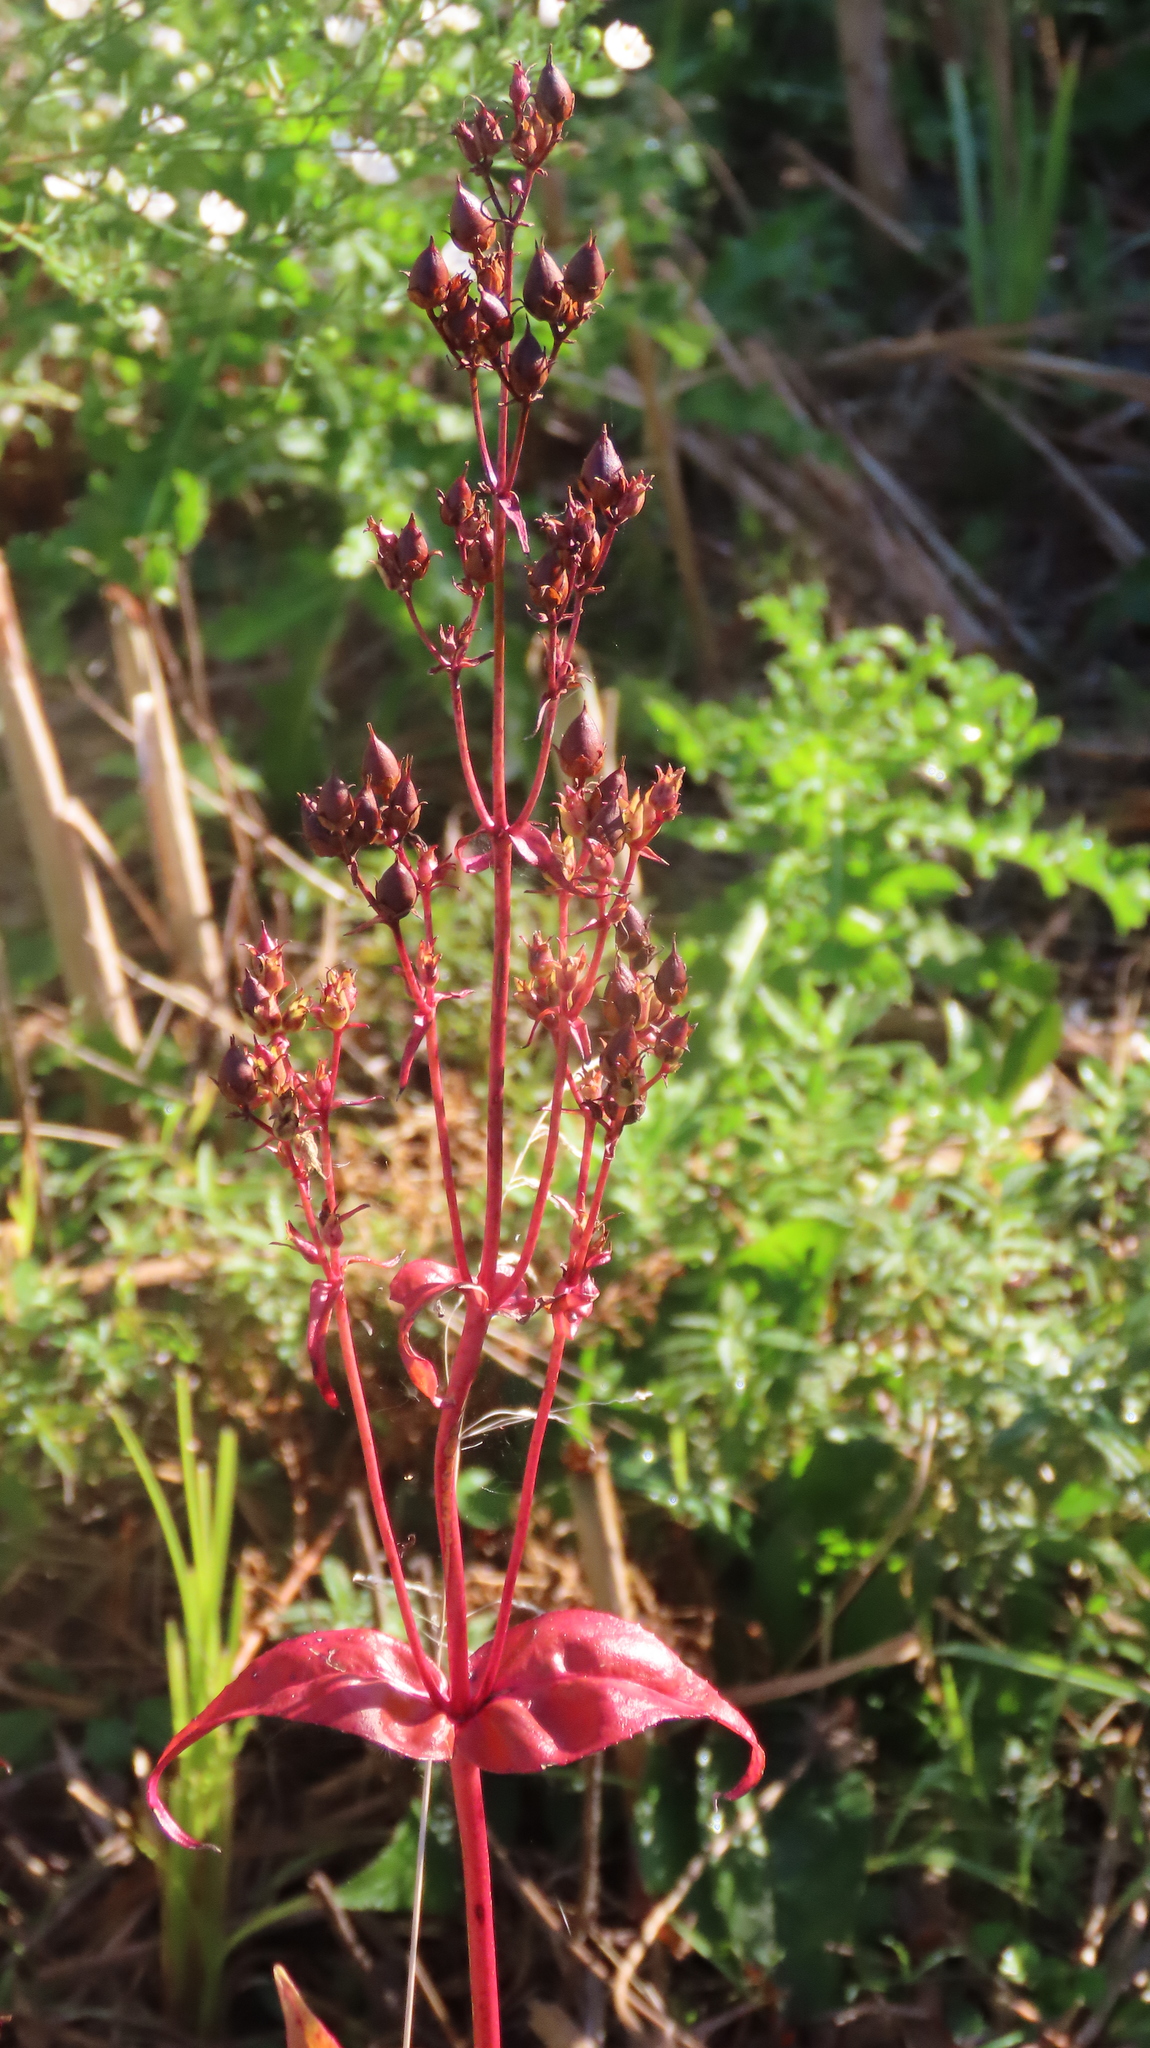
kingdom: Plantae
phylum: Tracheophyta
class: Magnoliopsida
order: Lamiales
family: Plantaginaceae
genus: Penstemon
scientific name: Penstemon digitalis
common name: Foxglove beardtongue
